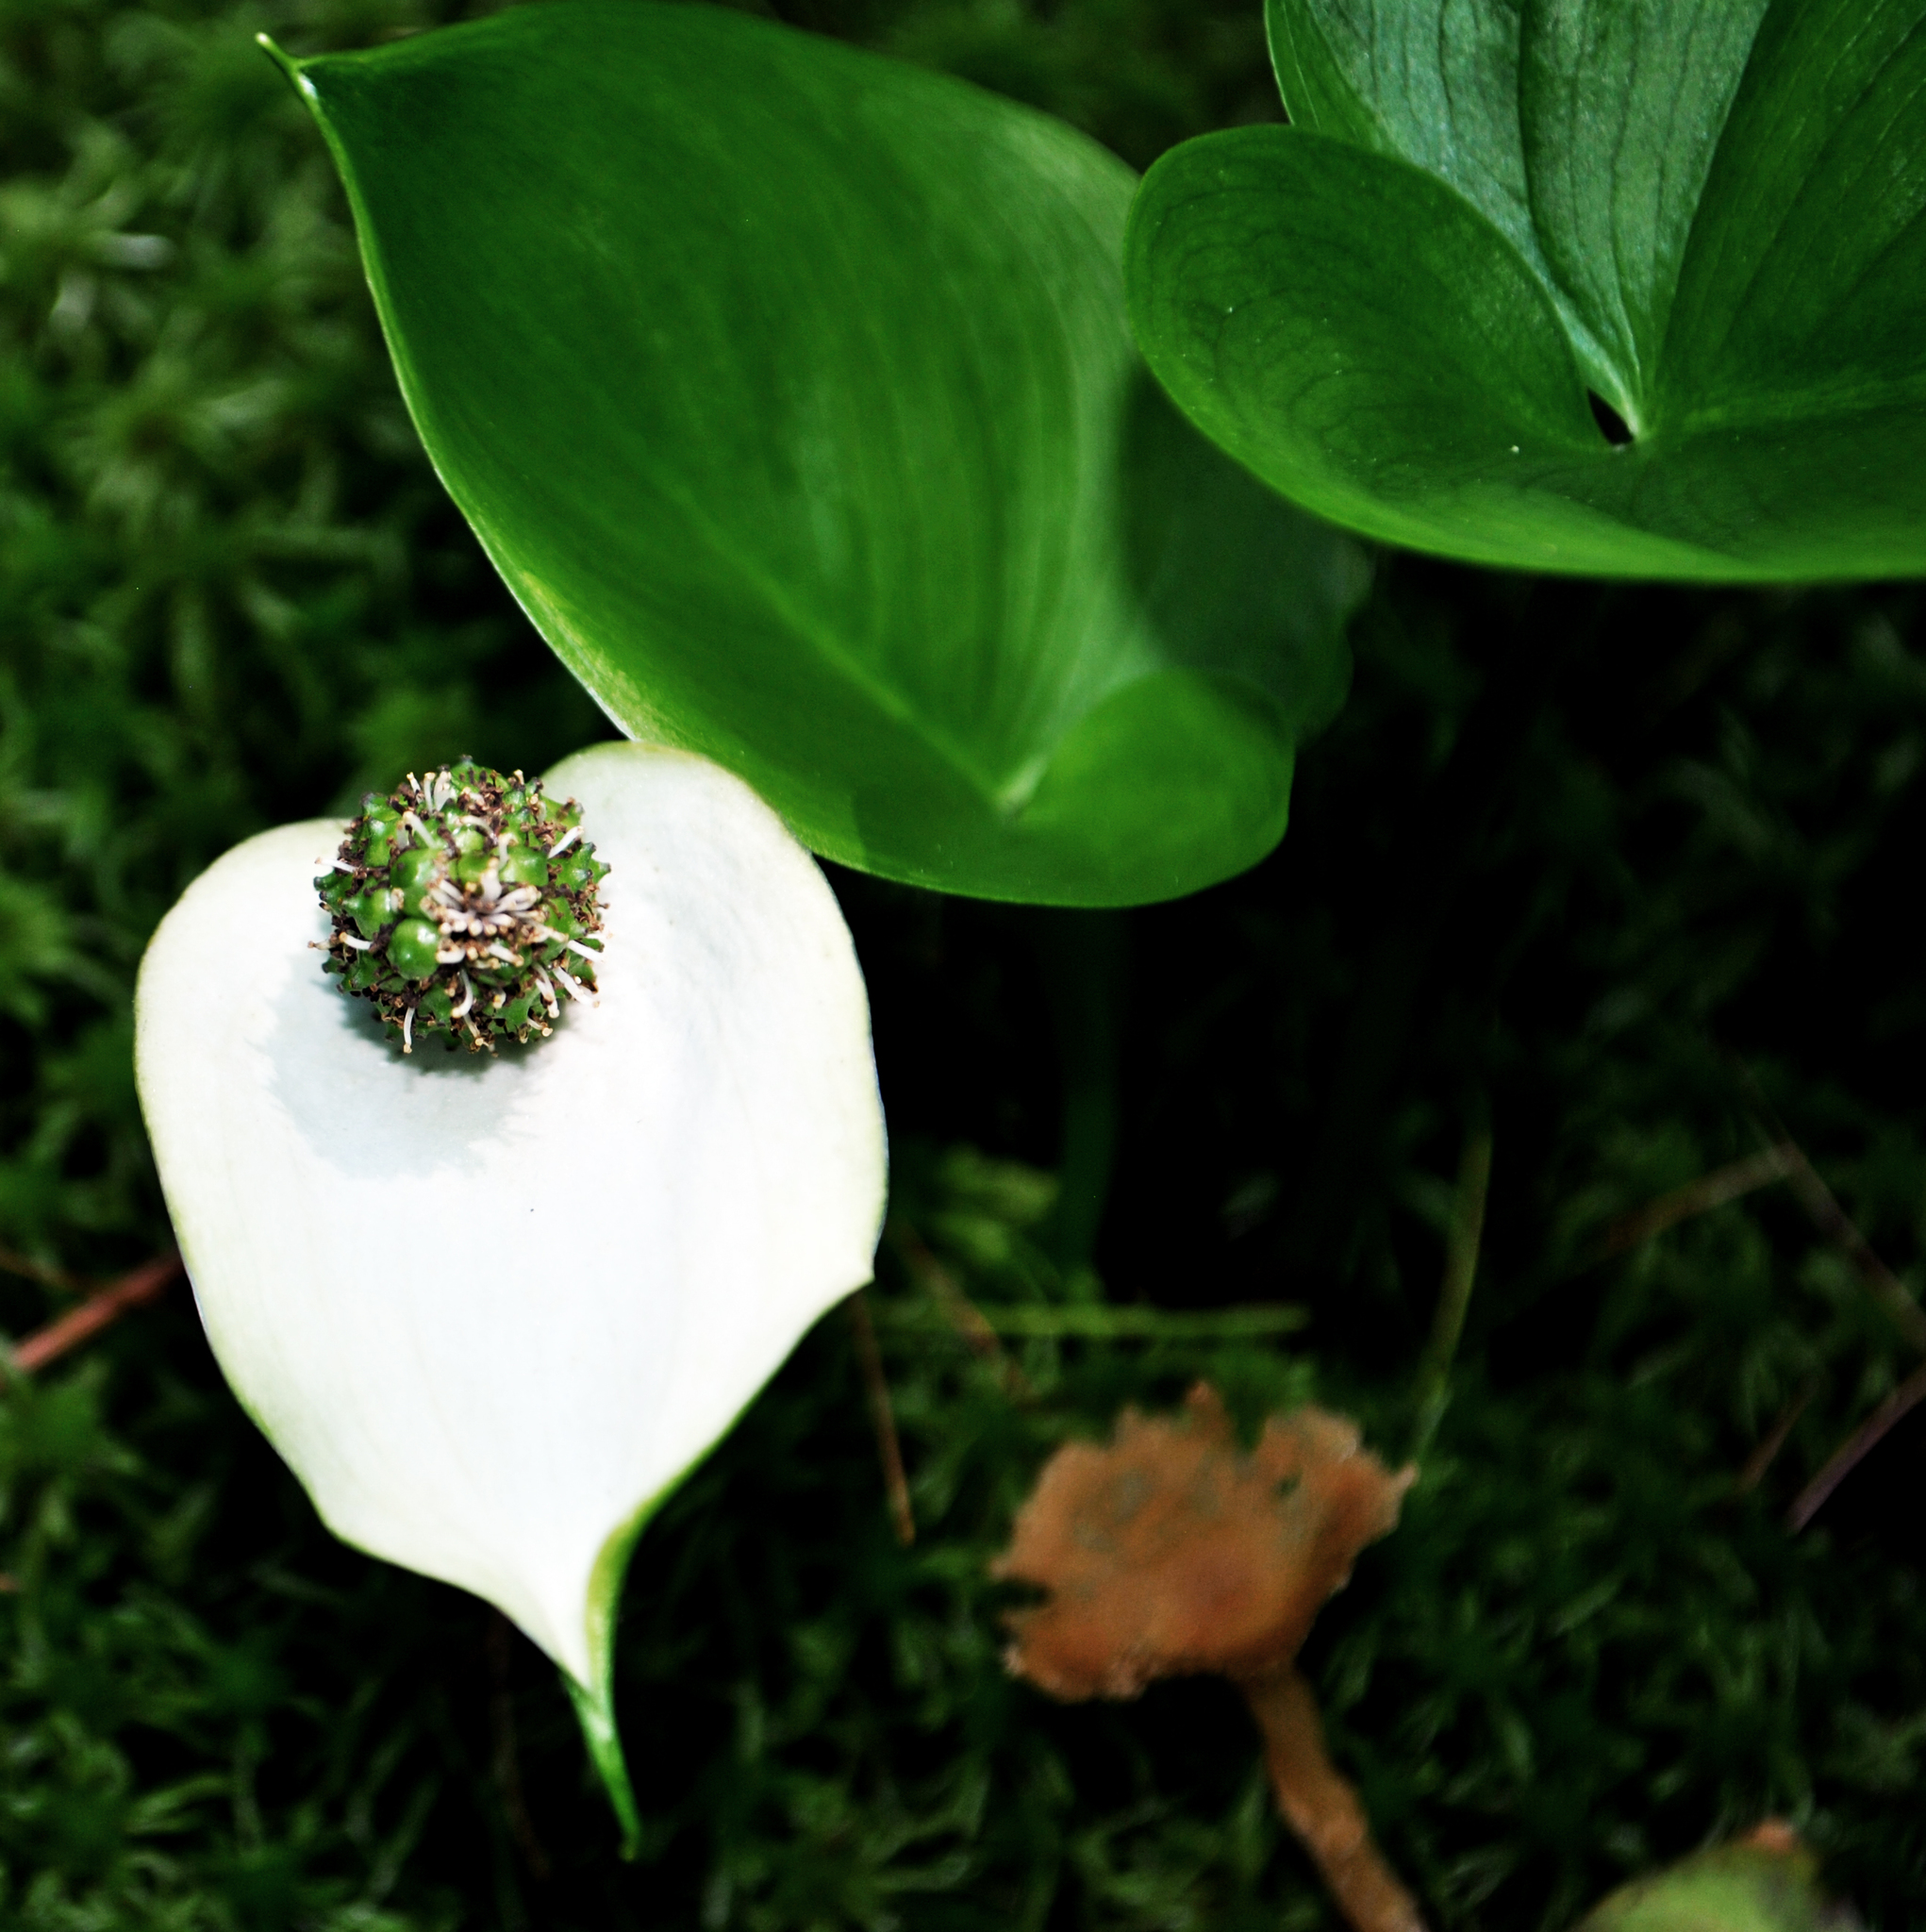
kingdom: Plantae
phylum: Tracheophyta
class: Liliopsida
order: Alismatales
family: Araceae
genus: Calla
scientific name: Calla palustris
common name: Bog arum
